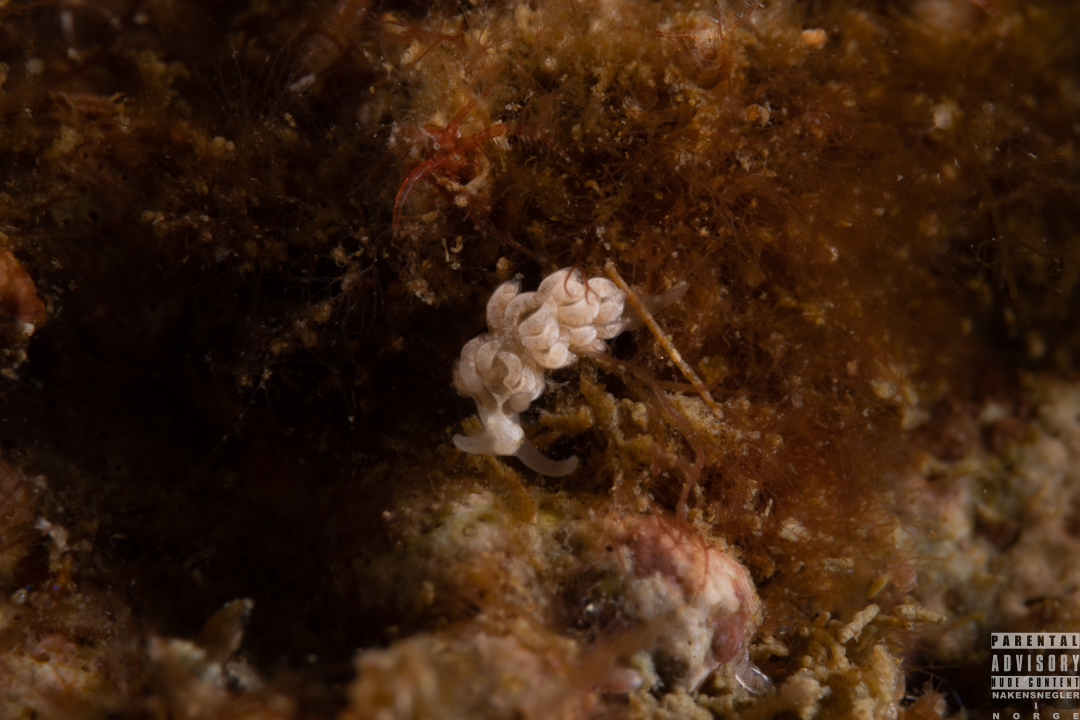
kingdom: Animalia
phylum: Mollusca
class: Gastropoda
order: Nudibranchia
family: Facelinidae
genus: Favorinus
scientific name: Favorinus branchialis
